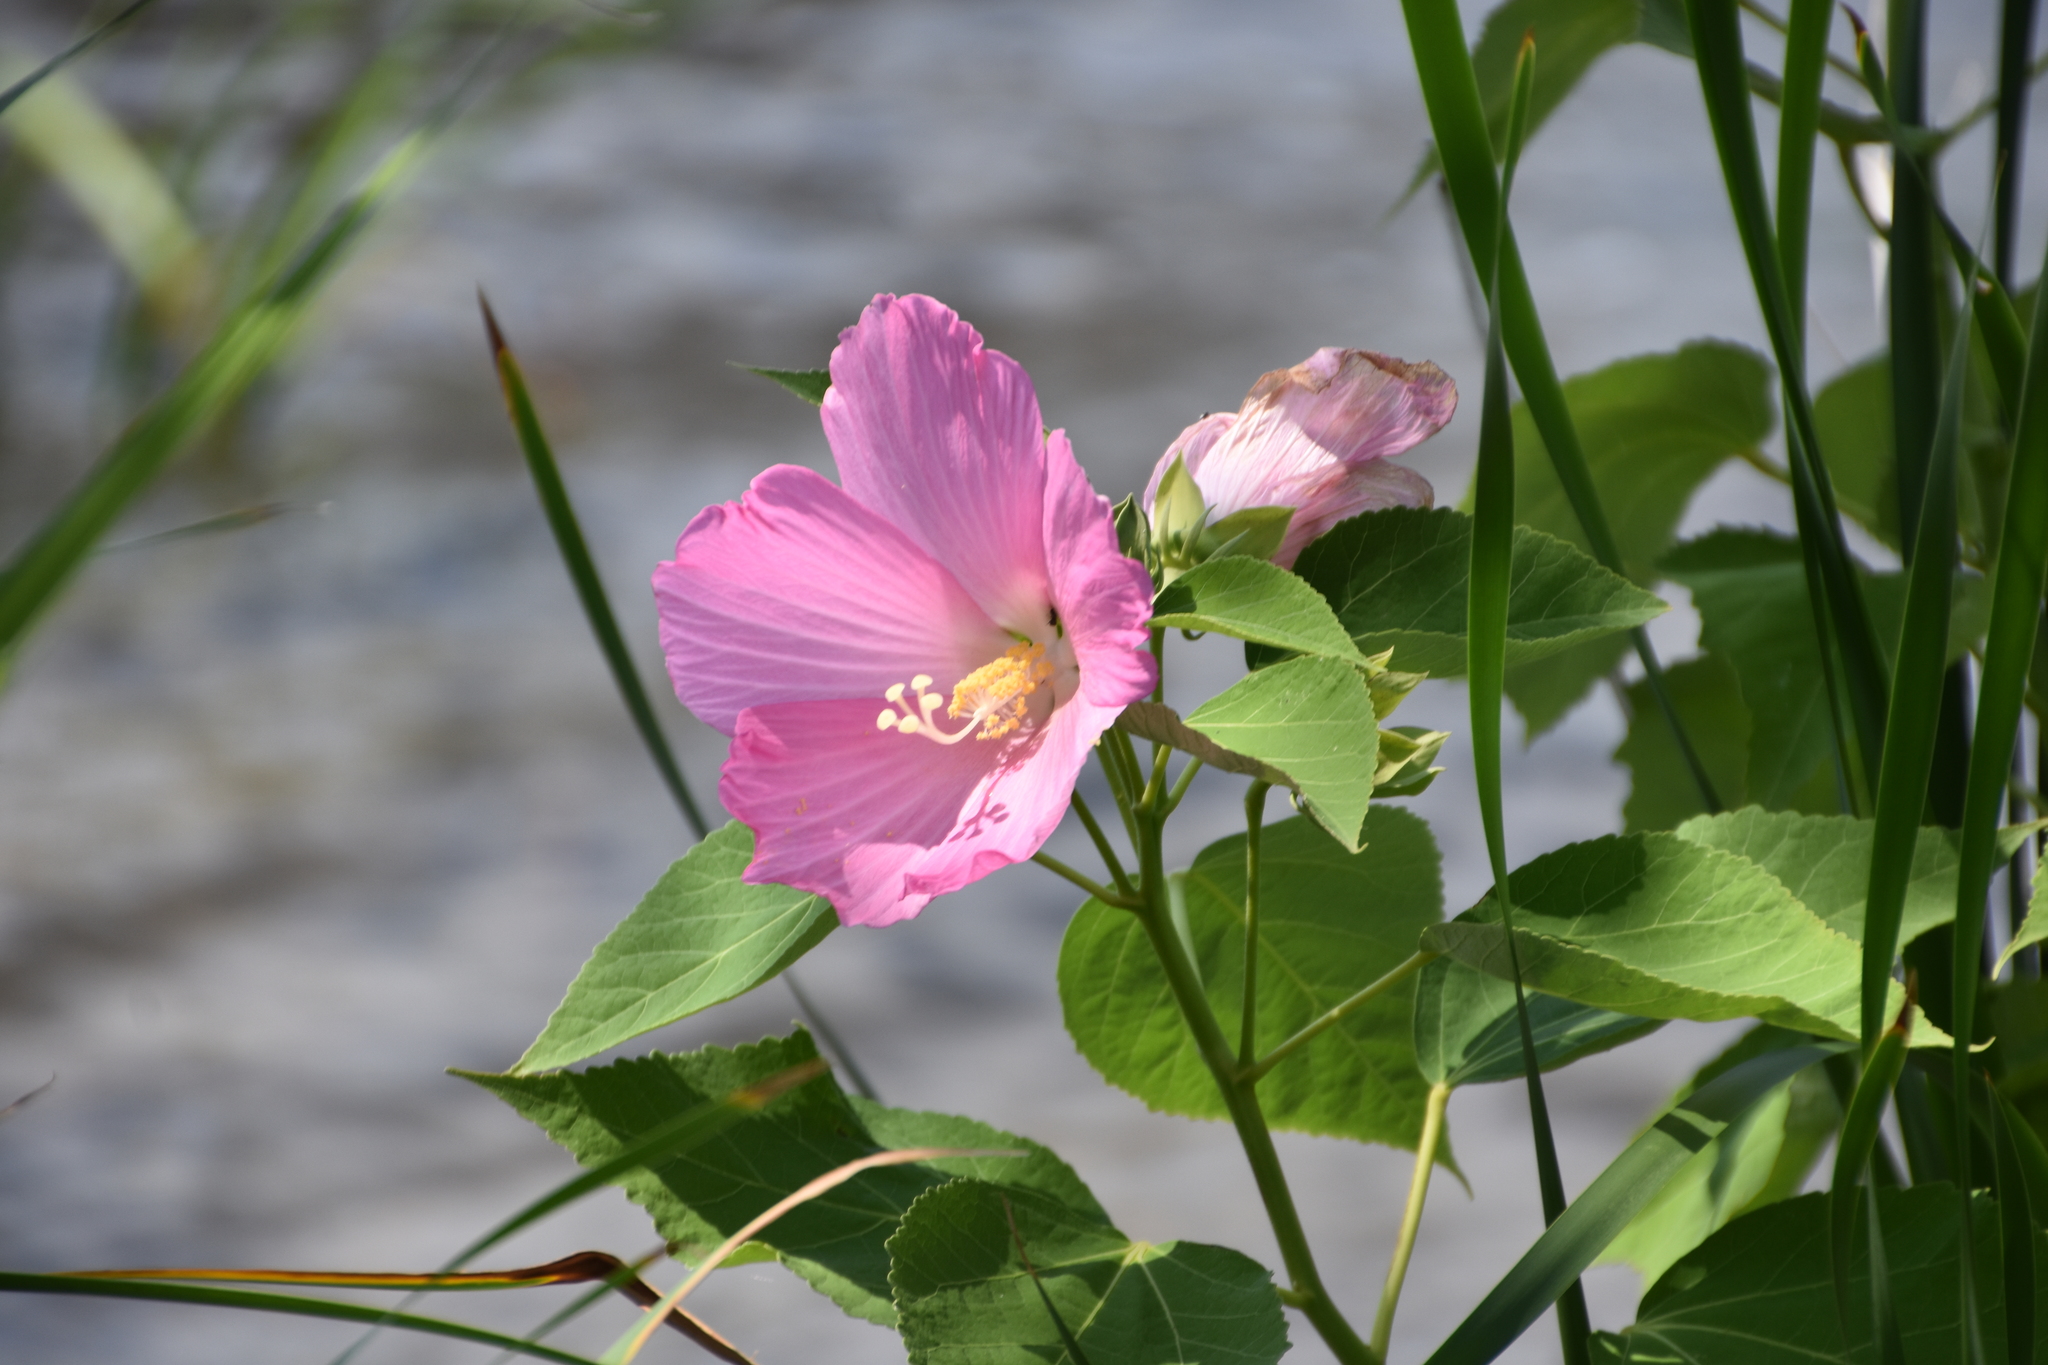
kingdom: Plantae
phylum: Tracheophyta
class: Magnoliopsida
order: Malvales
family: Malvaceae
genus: Hibiscus
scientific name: Hibiscus moscheutos
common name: Common rose-mallow
